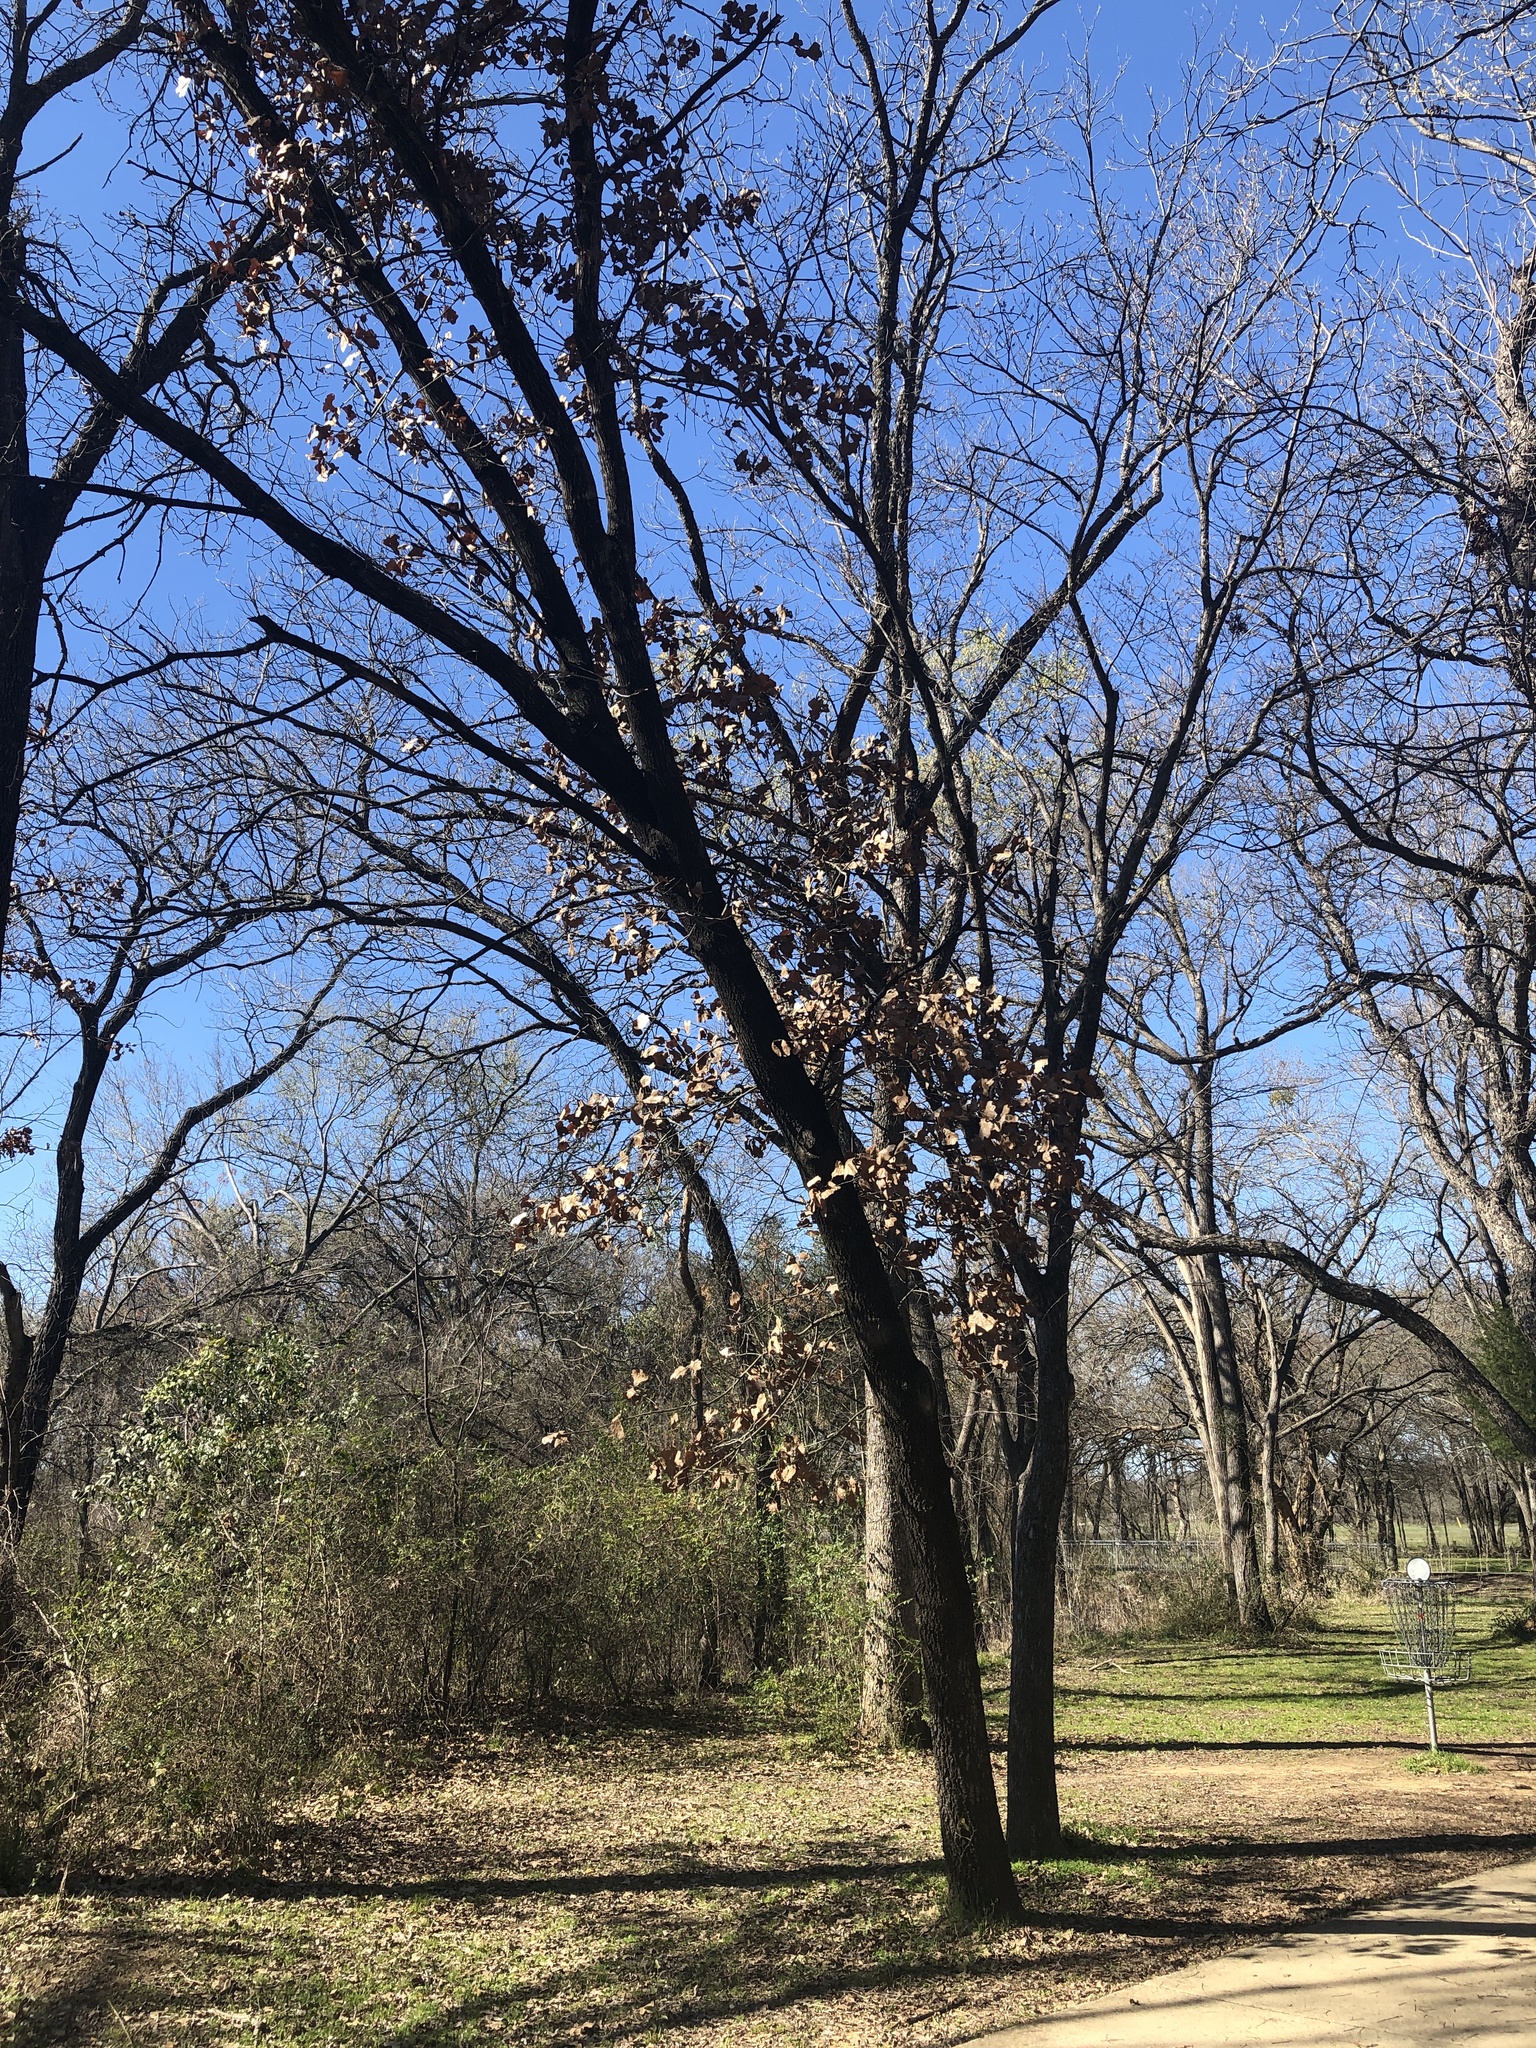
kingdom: Plantae
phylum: Tracheophyta
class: Magnoliopsida
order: Fagales
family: Fagaceae
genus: Quercus
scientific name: Quercus marilandica
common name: Blackjack oak
